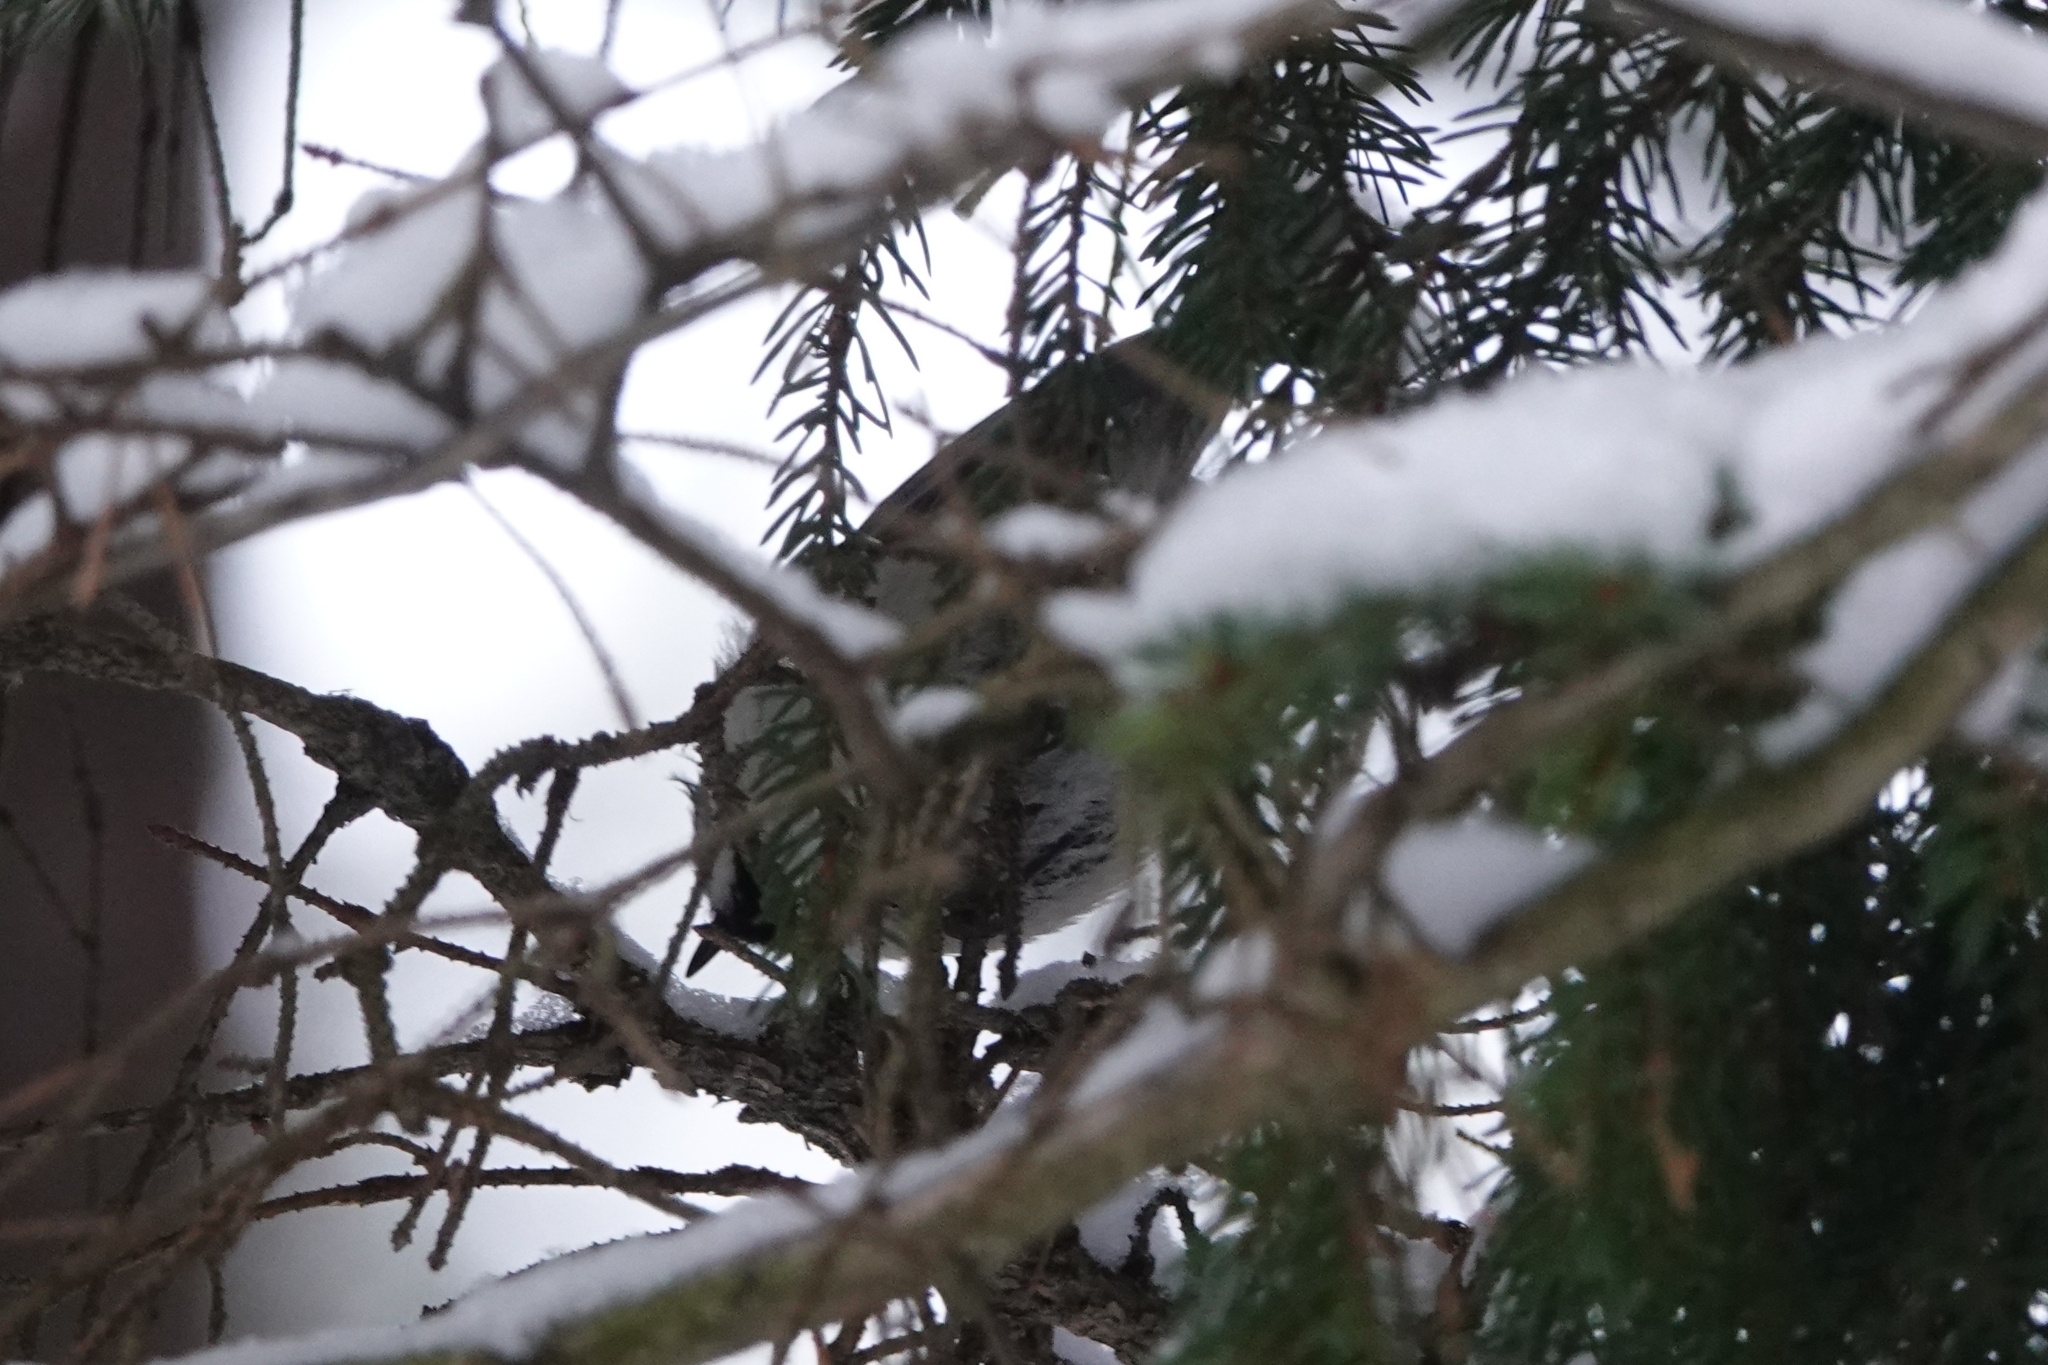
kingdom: Animalia
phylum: Chordata
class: Aves
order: Passeriformes
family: Paridae
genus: Lophophanes
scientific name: Lophophanes cristatus
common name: European crested tit
